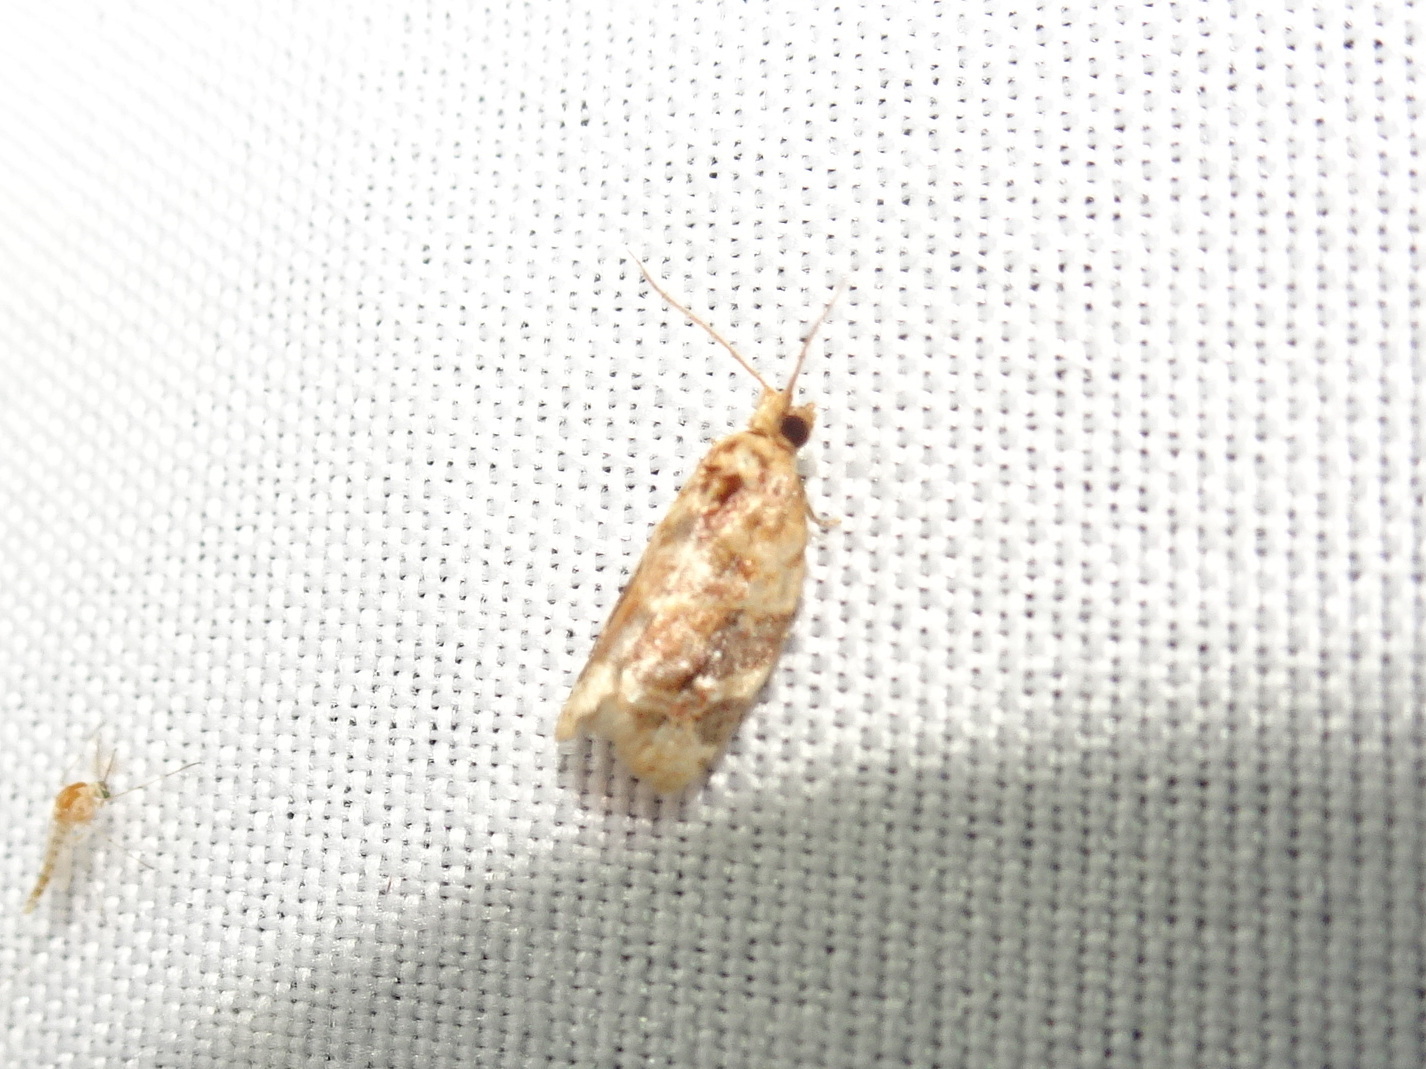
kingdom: Animalia
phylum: Arthropoda
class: Insecta
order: Lepidoptera
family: Tortricidae
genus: Argyrotaenia
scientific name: Argyrotaenia velutinana
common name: Red-banded leafroller moth
